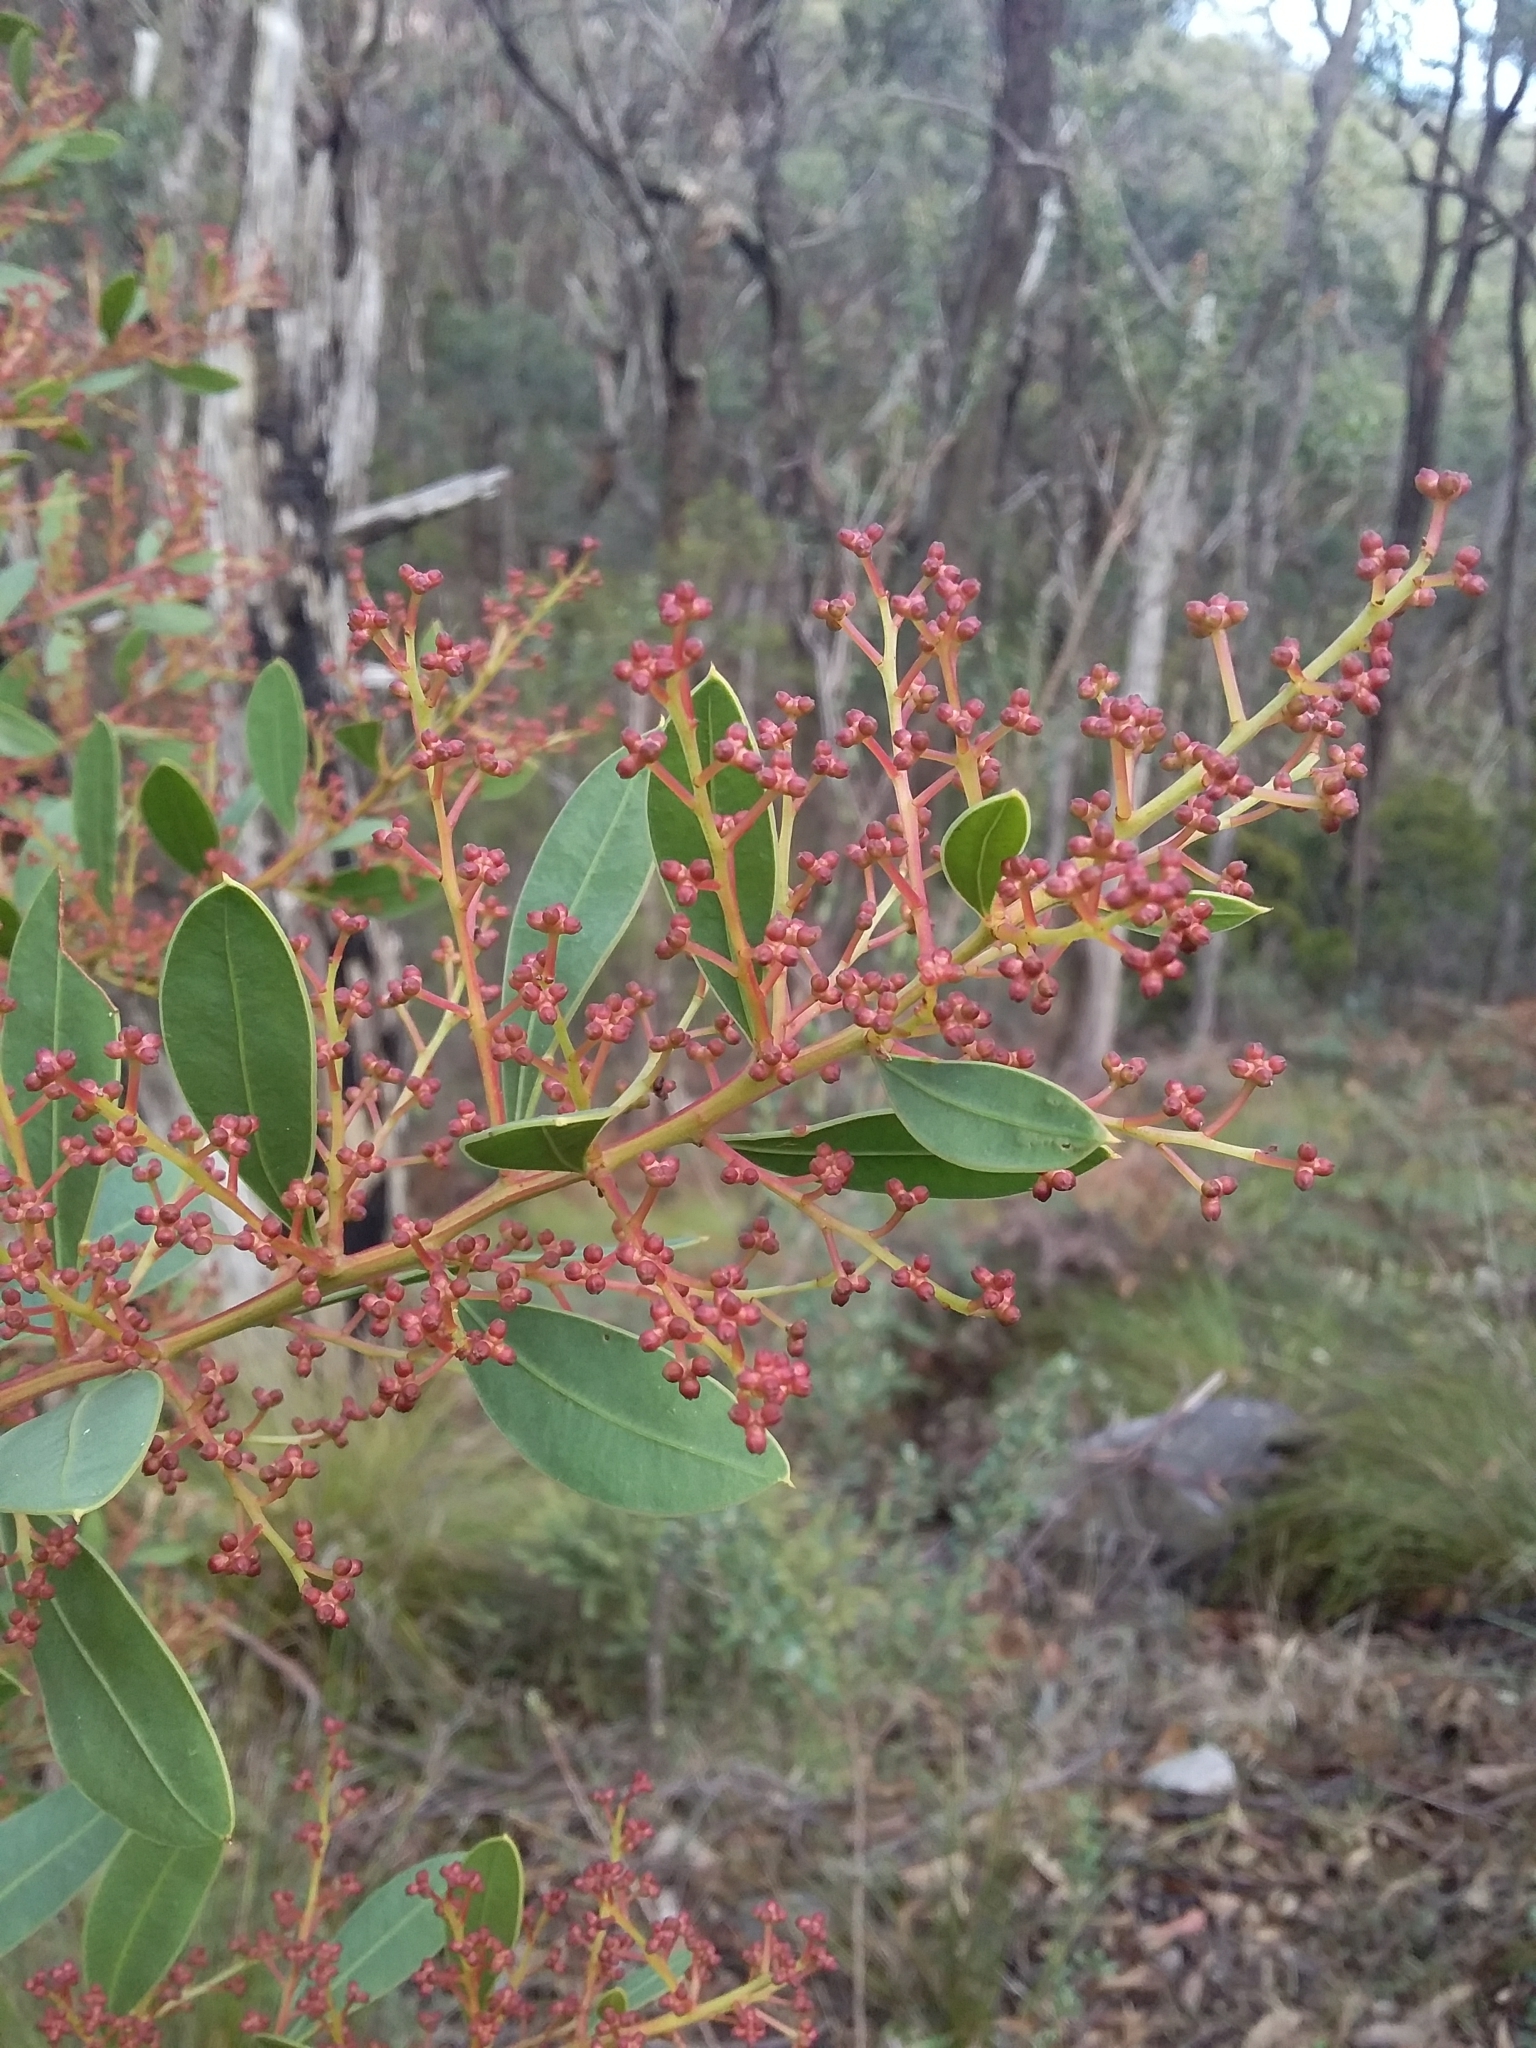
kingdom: Plantae
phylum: Tracheophyta
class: Magnoliopsida
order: Fabales
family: Fabaceae
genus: Acacia
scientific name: Acacia myrtifolia
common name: Myrtle wattle
